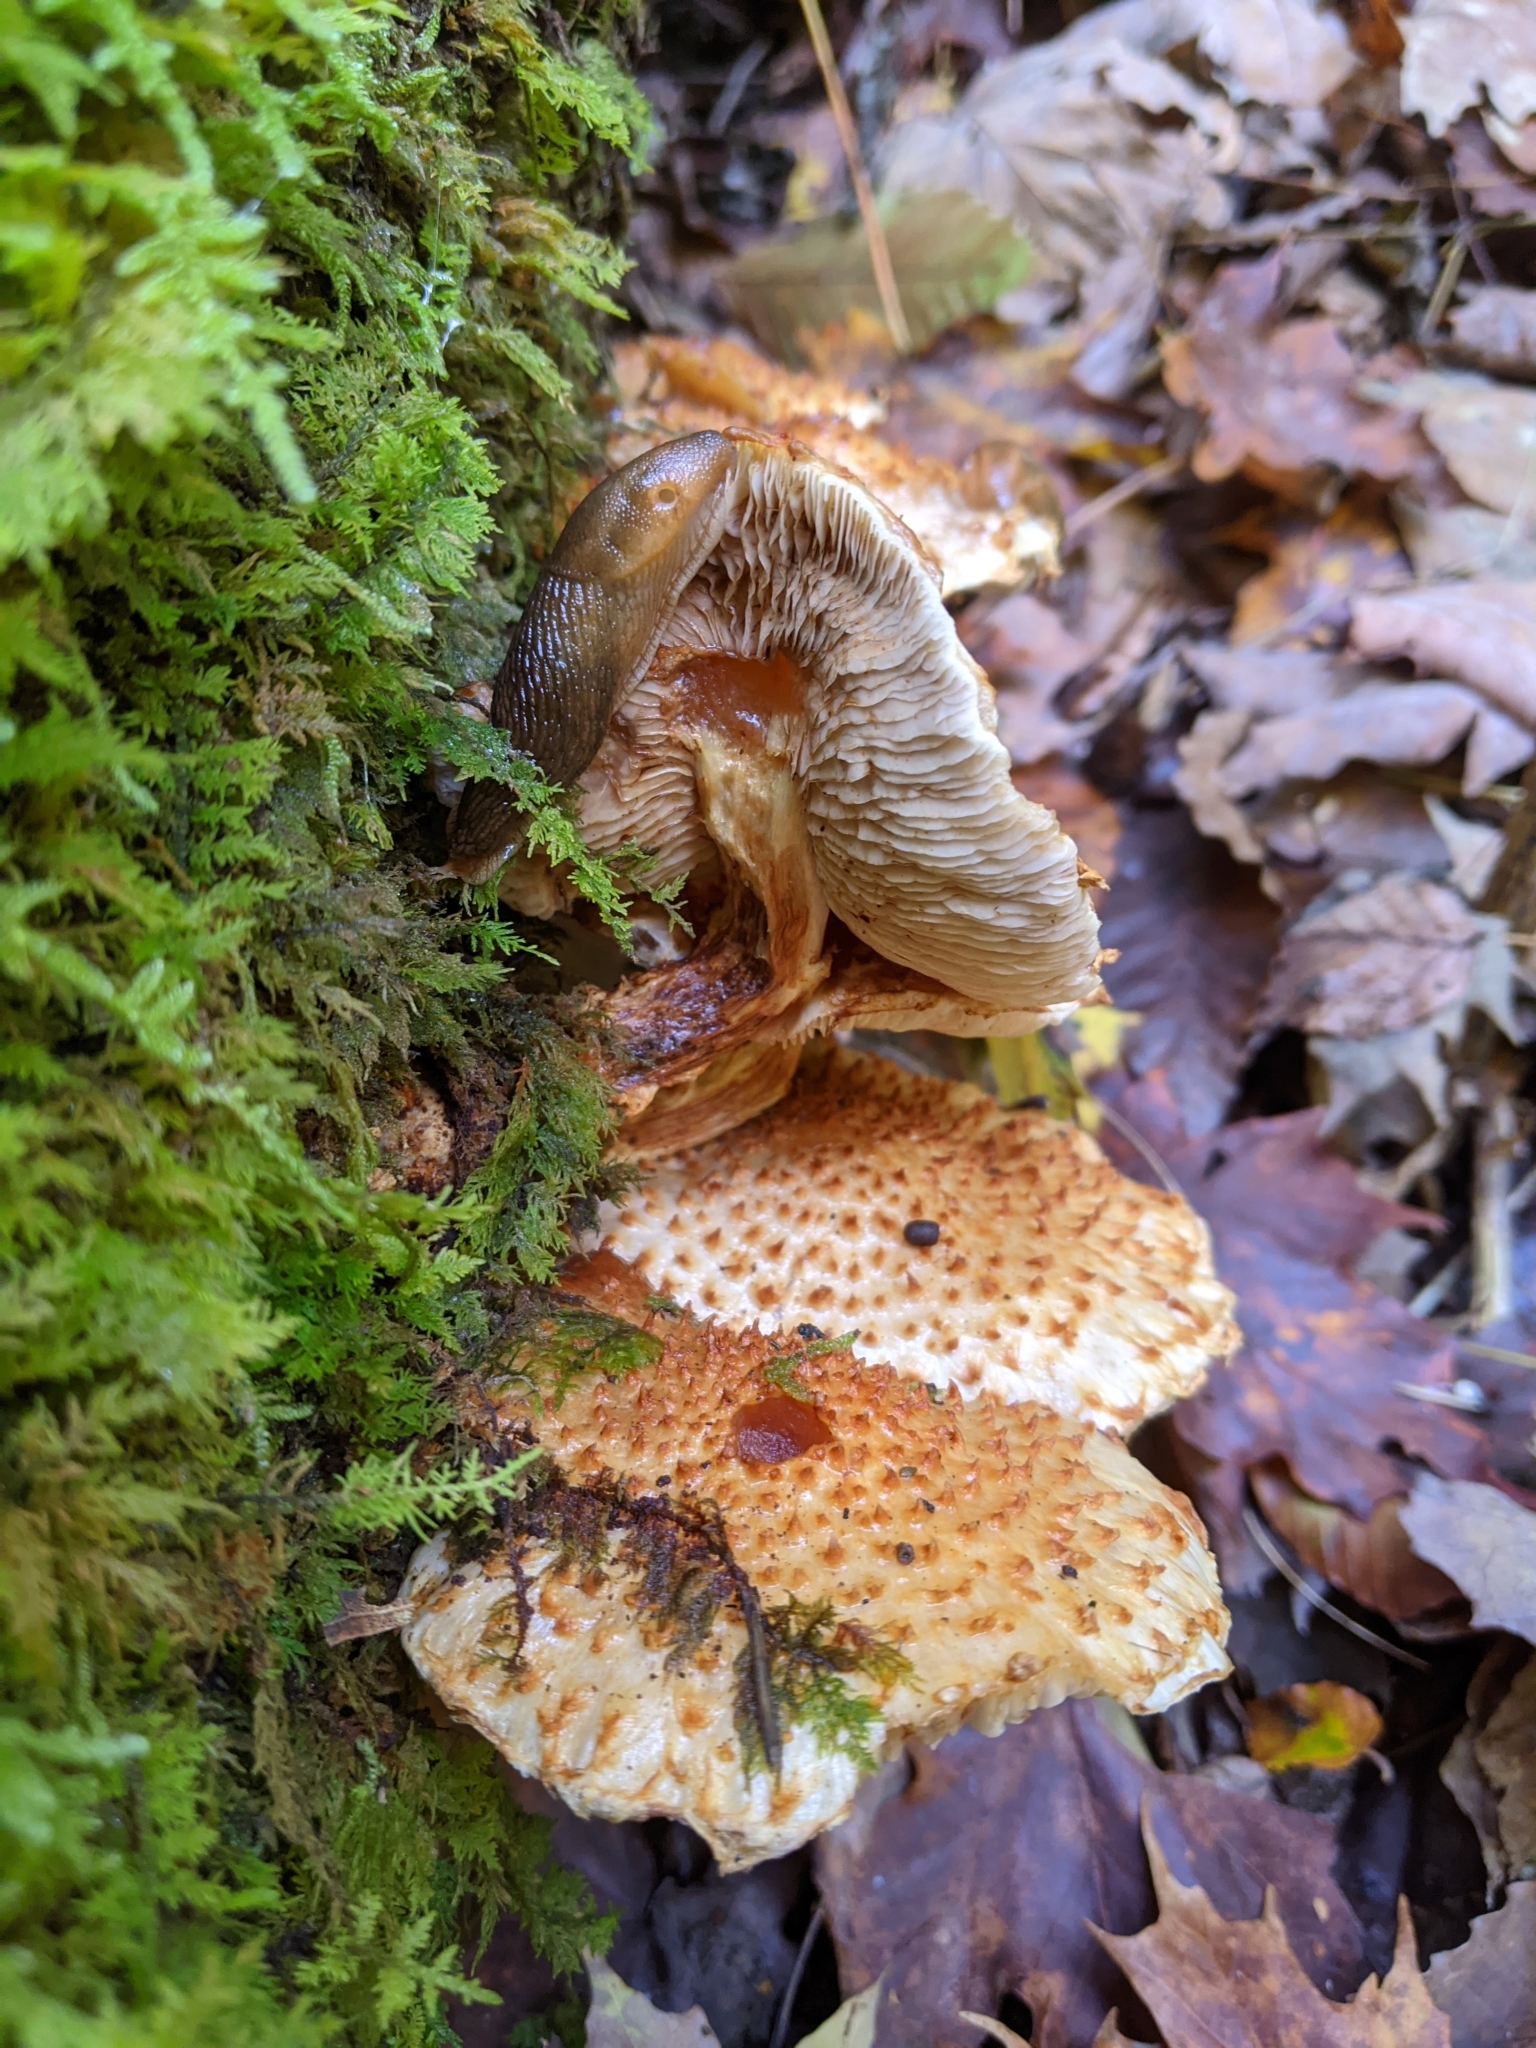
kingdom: Fungi
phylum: Basidiomycota
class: Agaricomycetes
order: Agaricales
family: Strophariaceae
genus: Pholiota
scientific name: Pholiota squarrosoides
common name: Sharp-scaly pholiota
